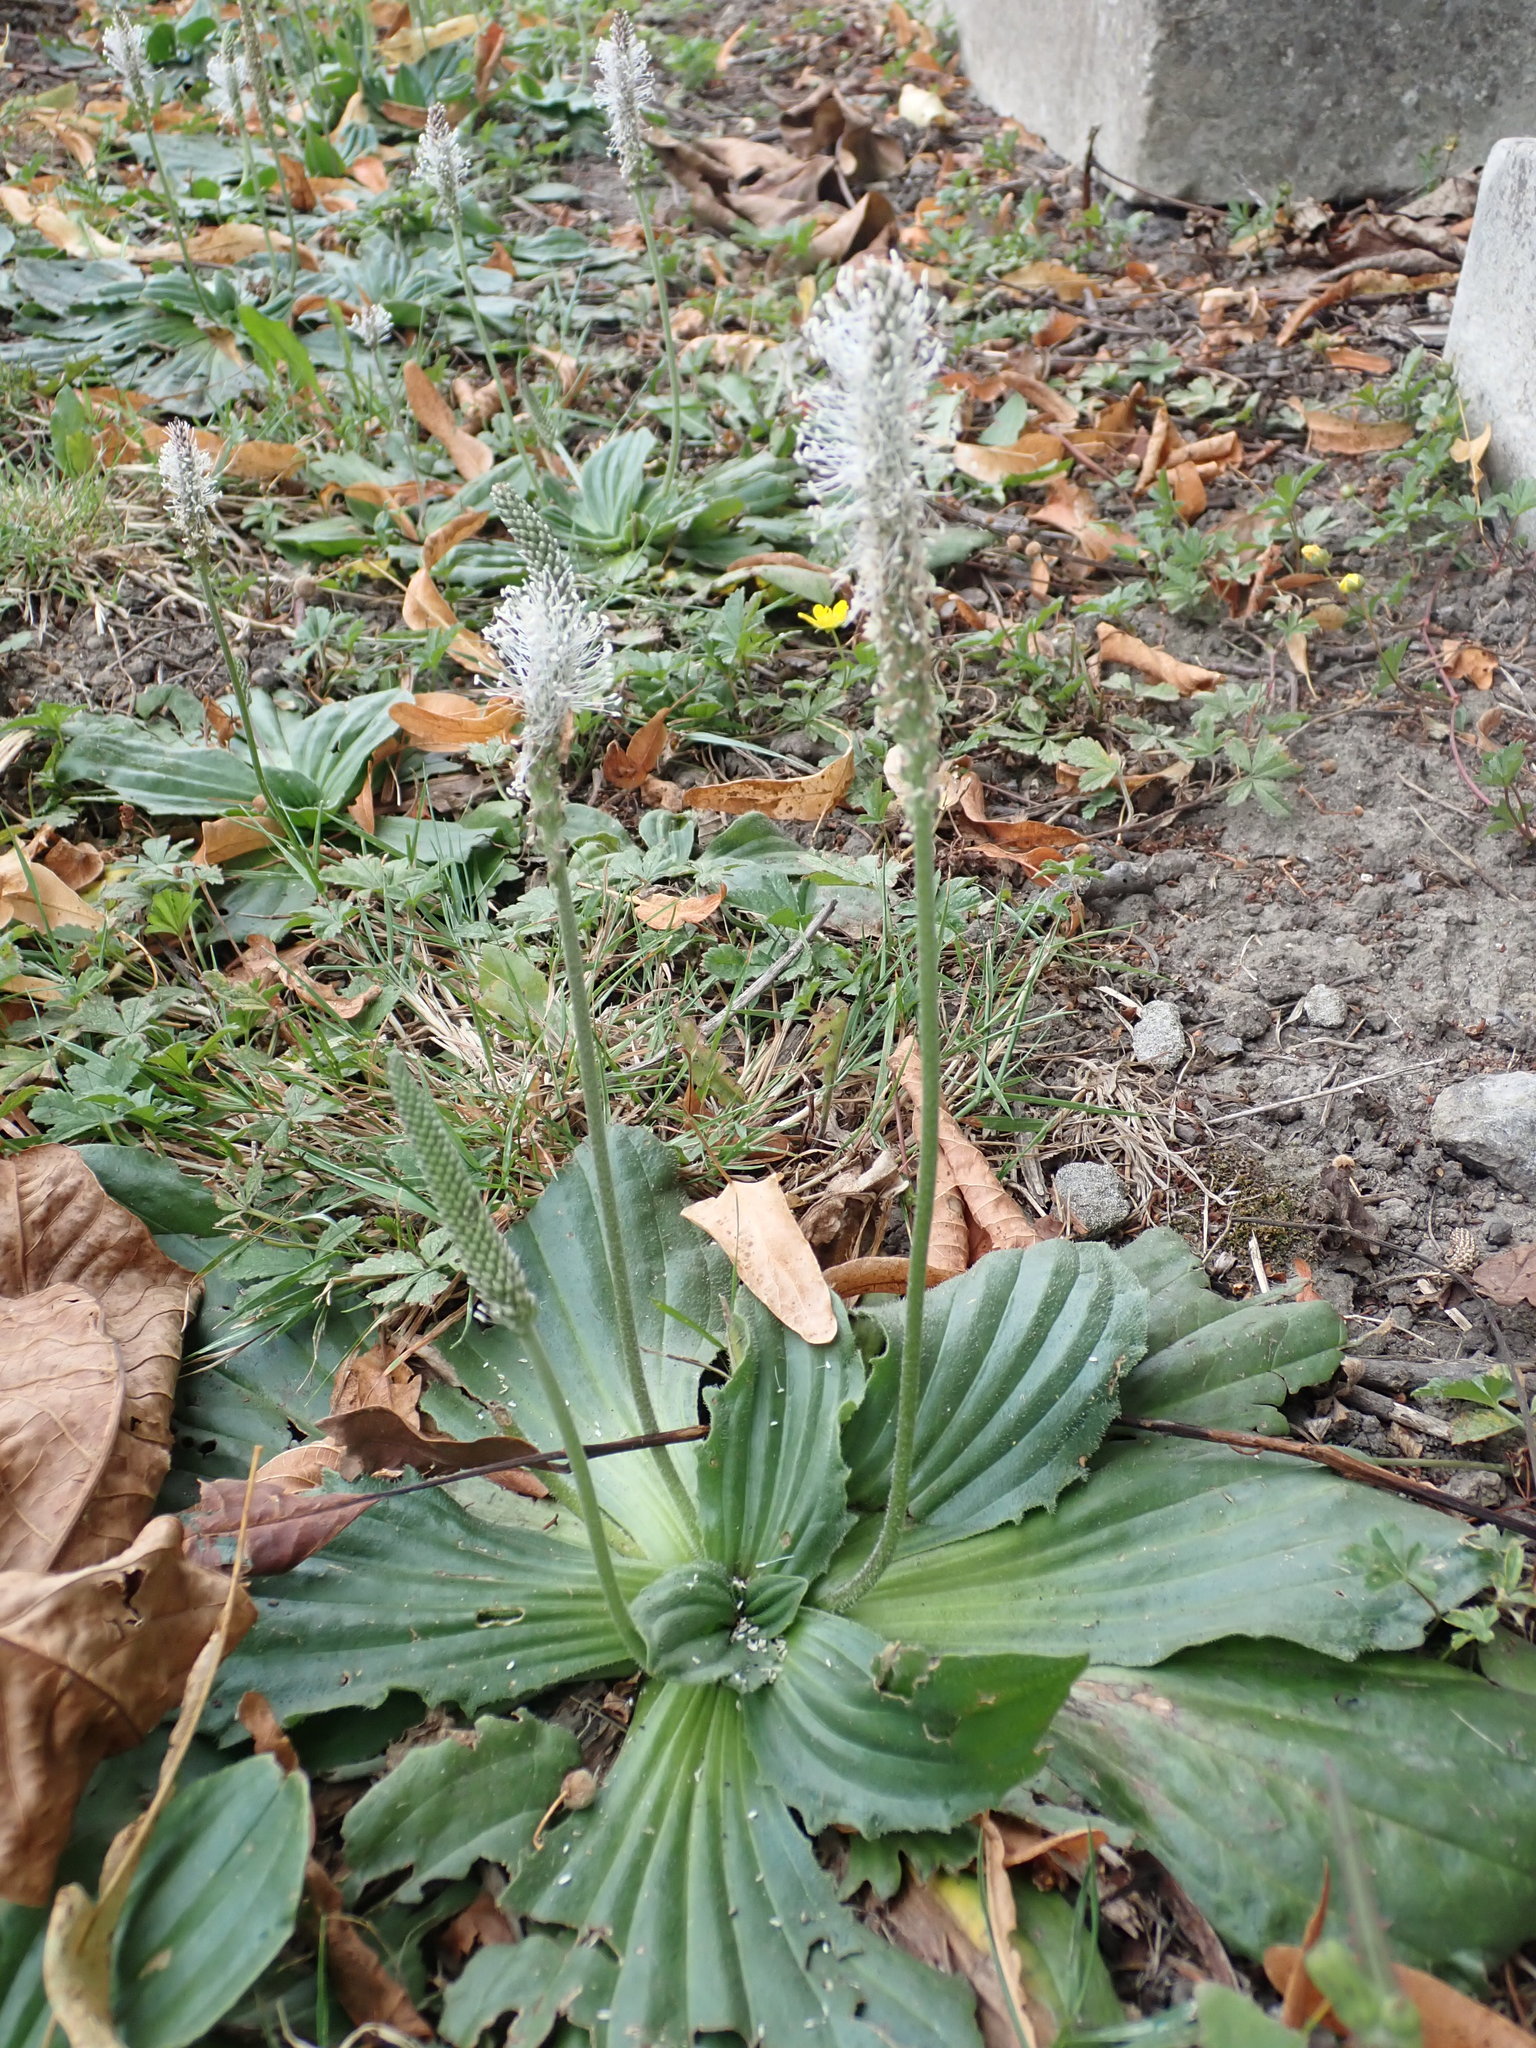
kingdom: Plantae
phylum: Tracheophyta
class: Magnoliopsida
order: Lamiales
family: Plantaginaceae
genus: Plantago
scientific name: Plantago media
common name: Hoary plantain
